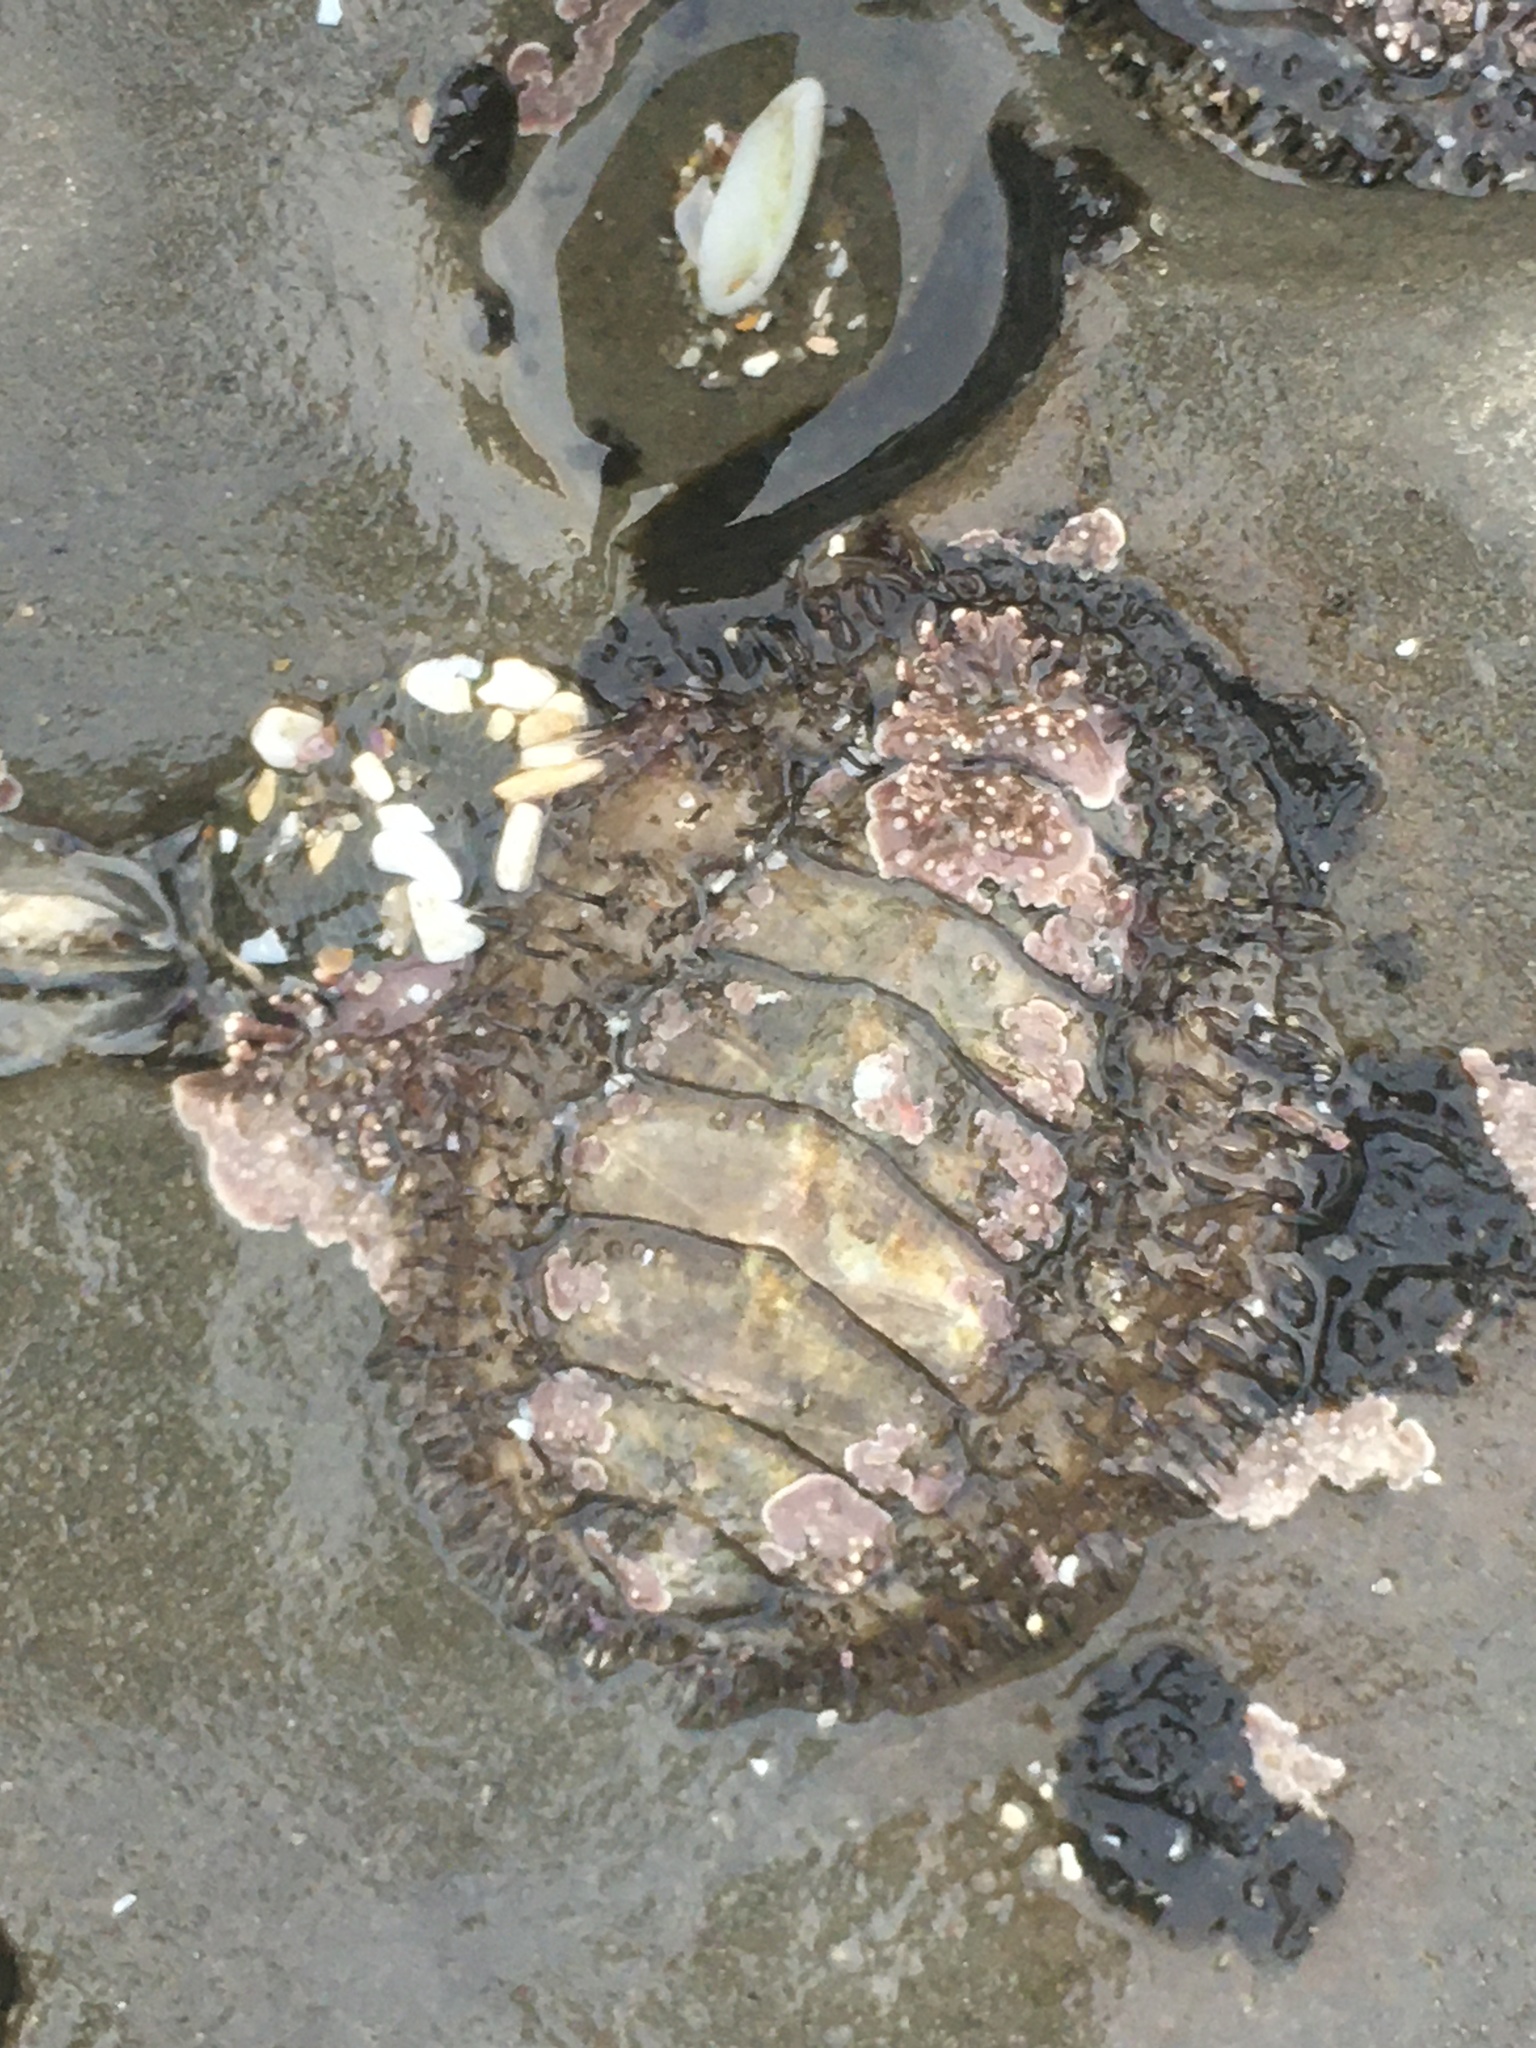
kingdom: Animalia
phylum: Mollusca
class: Polyplacophora
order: Chitonida
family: Mopaliidae
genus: Mopalia
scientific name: Mopalia muscosa
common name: Mossy chiton
